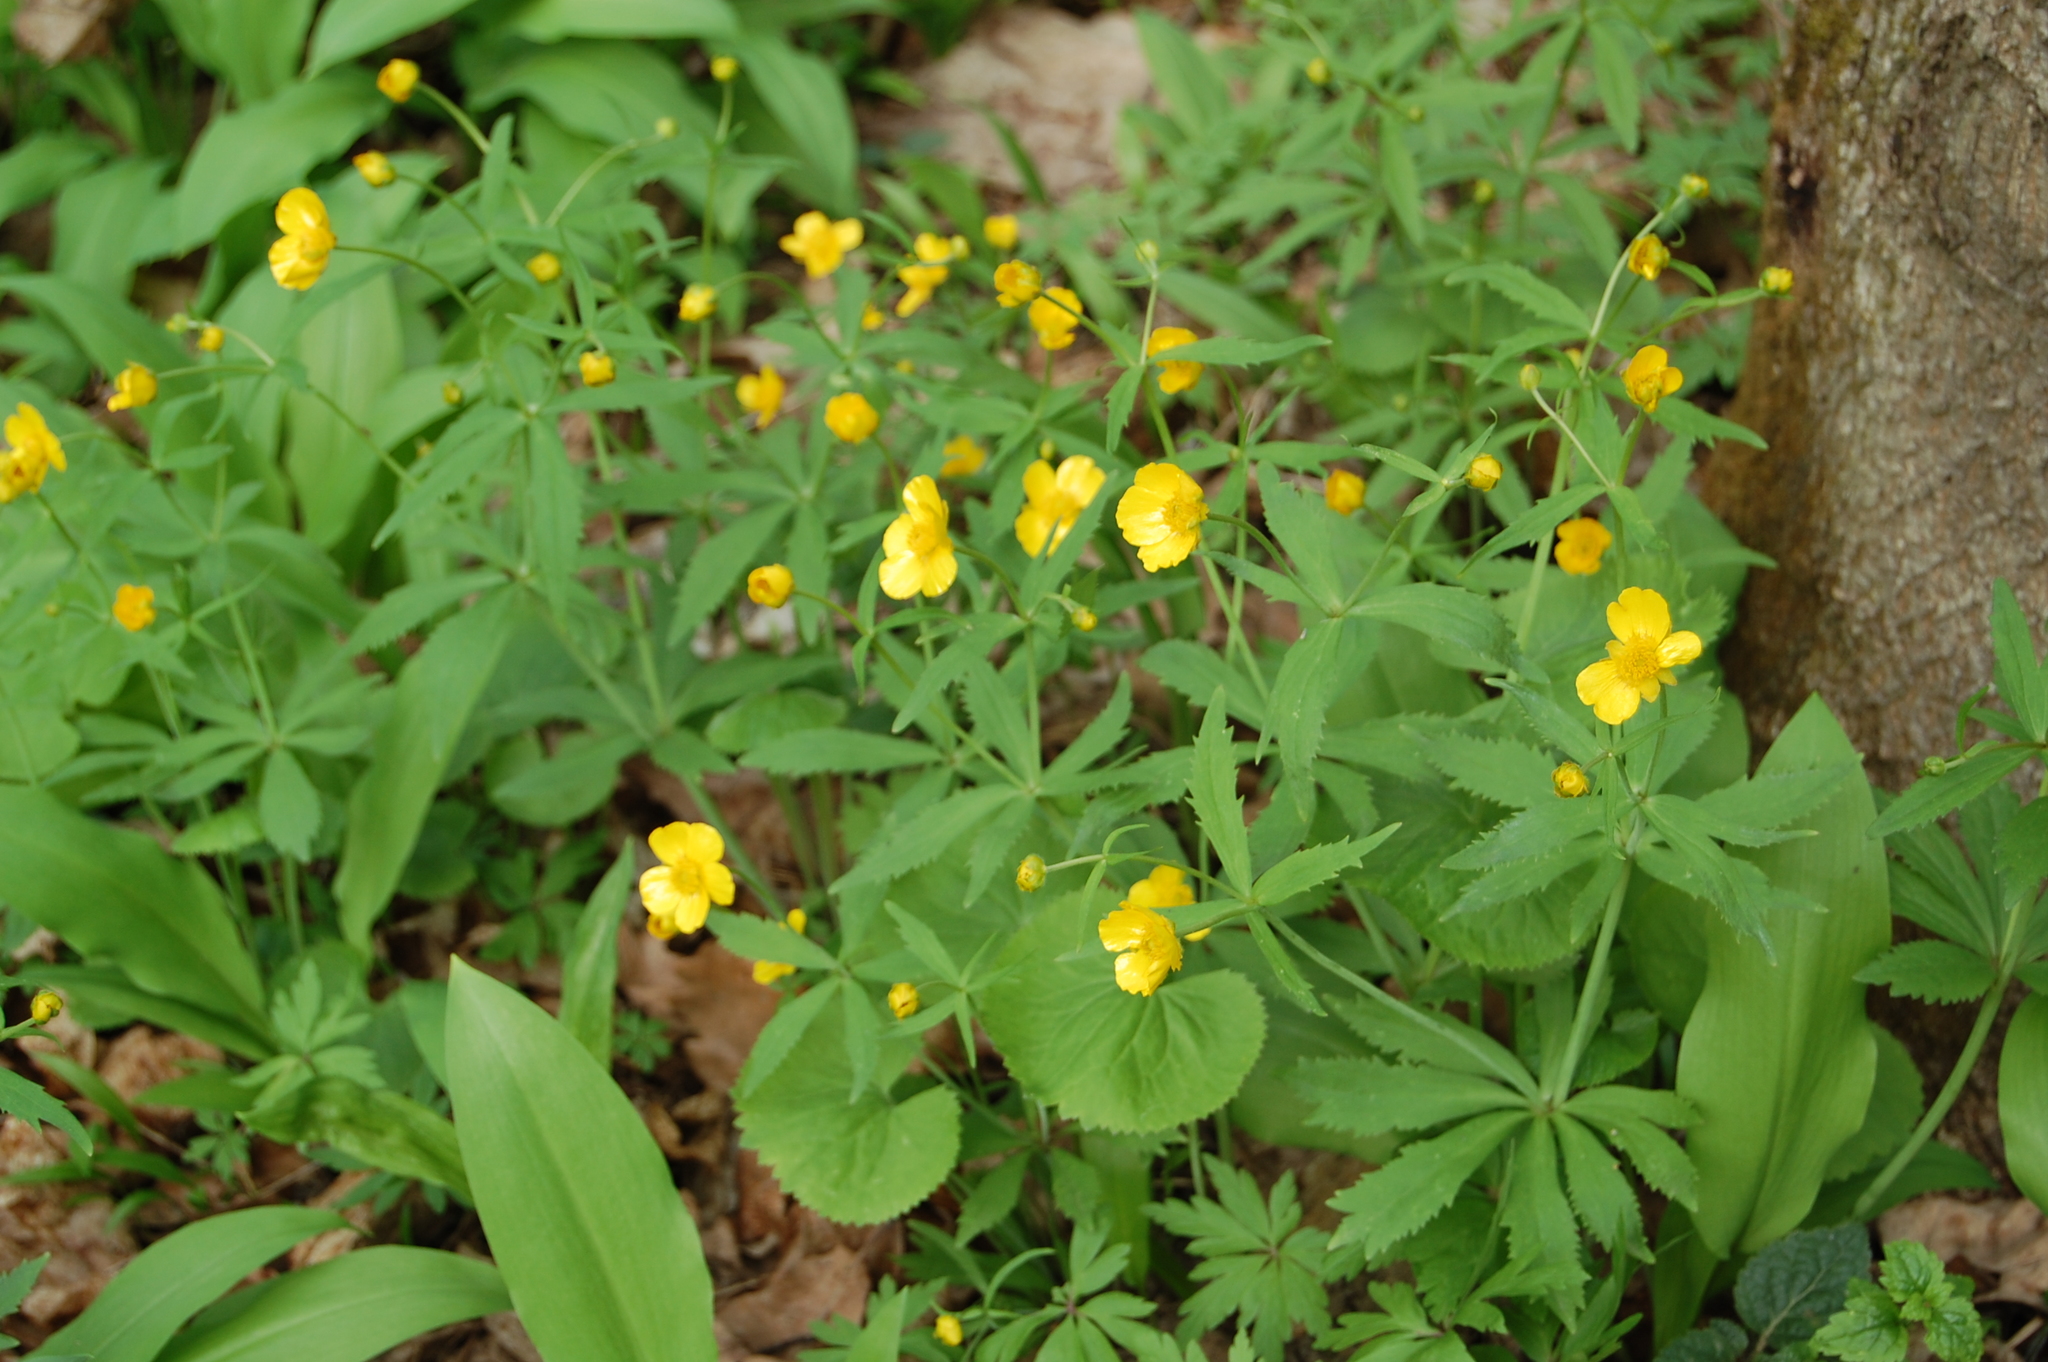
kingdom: Plantae
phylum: Tracheophyta
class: Magnoliopsida
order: Ranunculales
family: Ranunculaceae
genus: Ranunculus
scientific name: Ranunculus cassubicus
